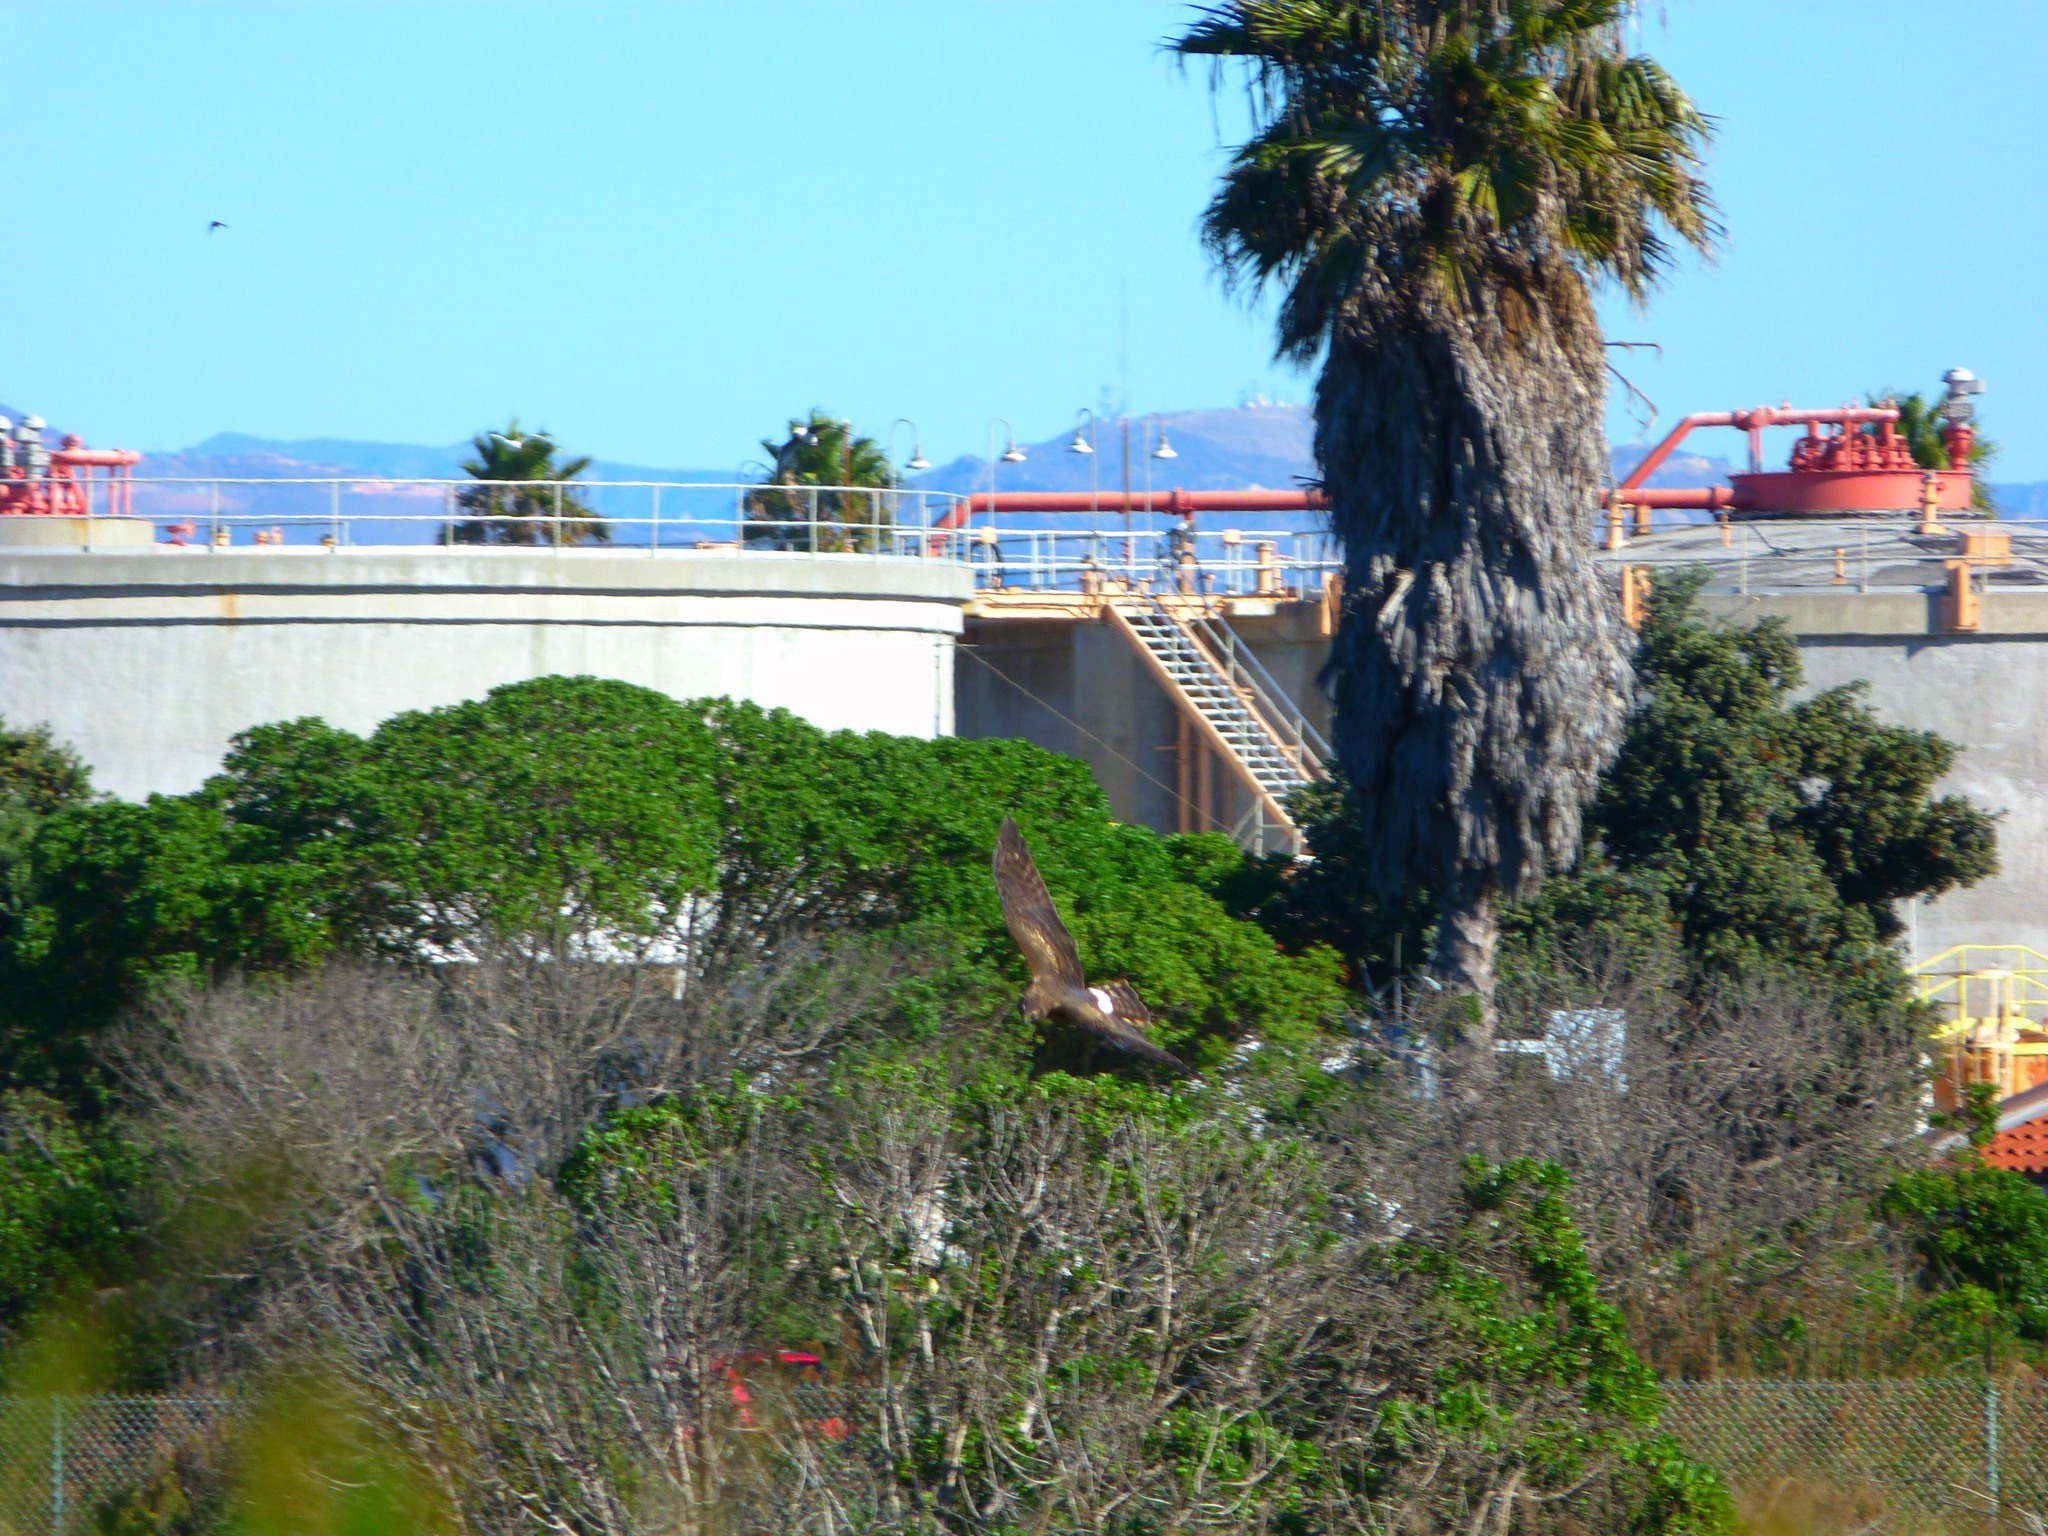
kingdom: Animalia
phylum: Chordata
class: Aves
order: Accipitriformes
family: Accipitridae
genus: Circus
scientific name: Circus cyaneus
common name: Hen harrier
